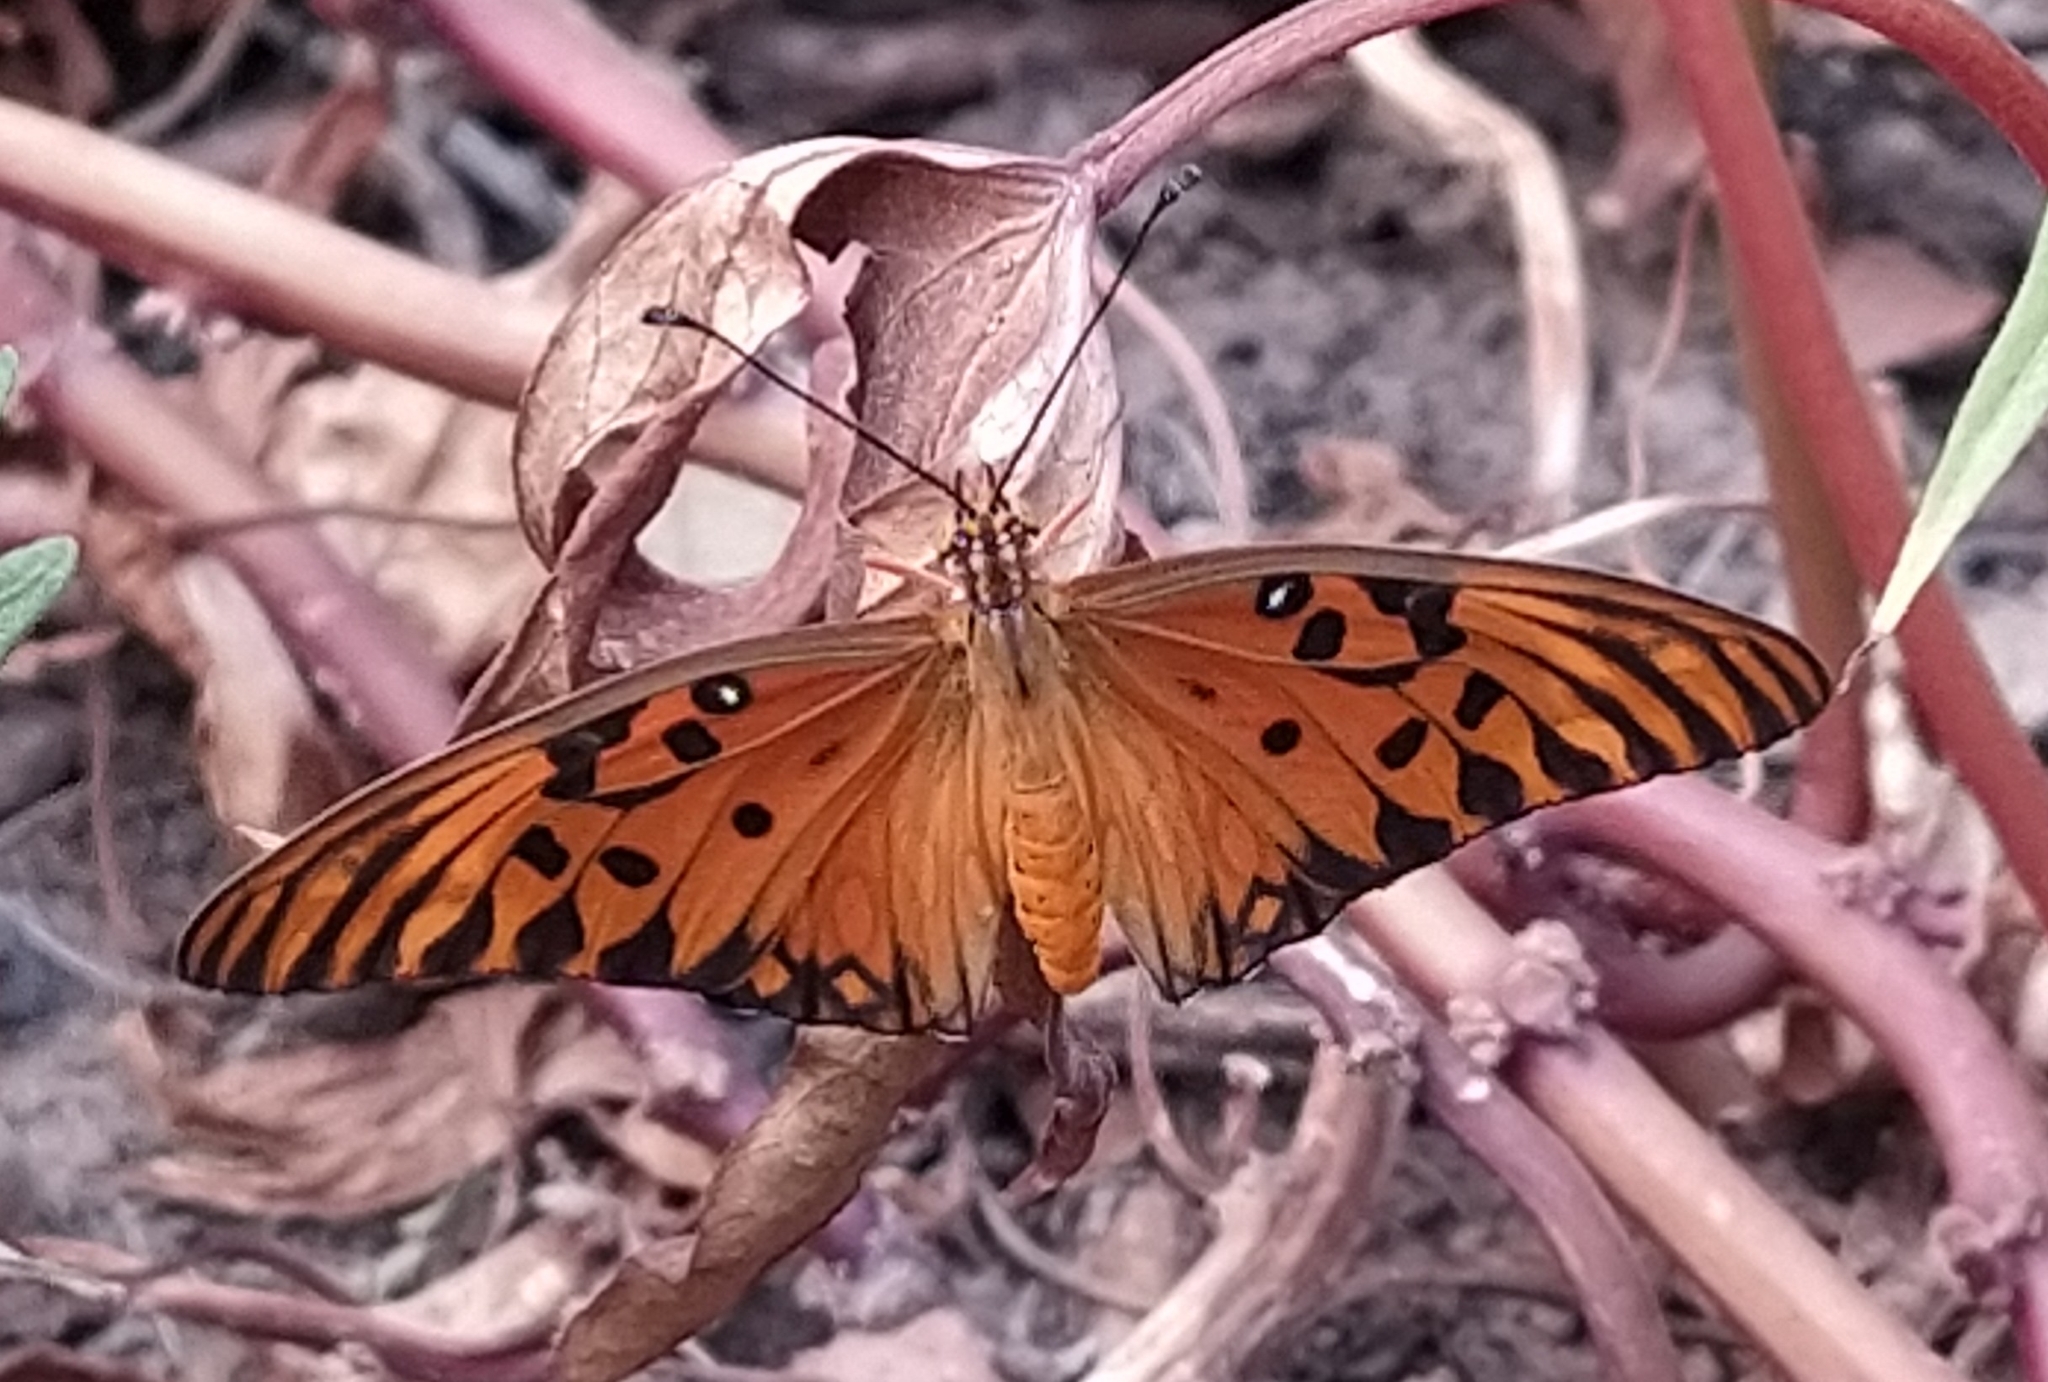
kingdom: Animalia
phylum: Arthropoda
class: Insecta
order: Lepidoptera
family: Nymphalidae
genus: Dione
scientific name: Dione vanillae
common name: Gulf fritillary
